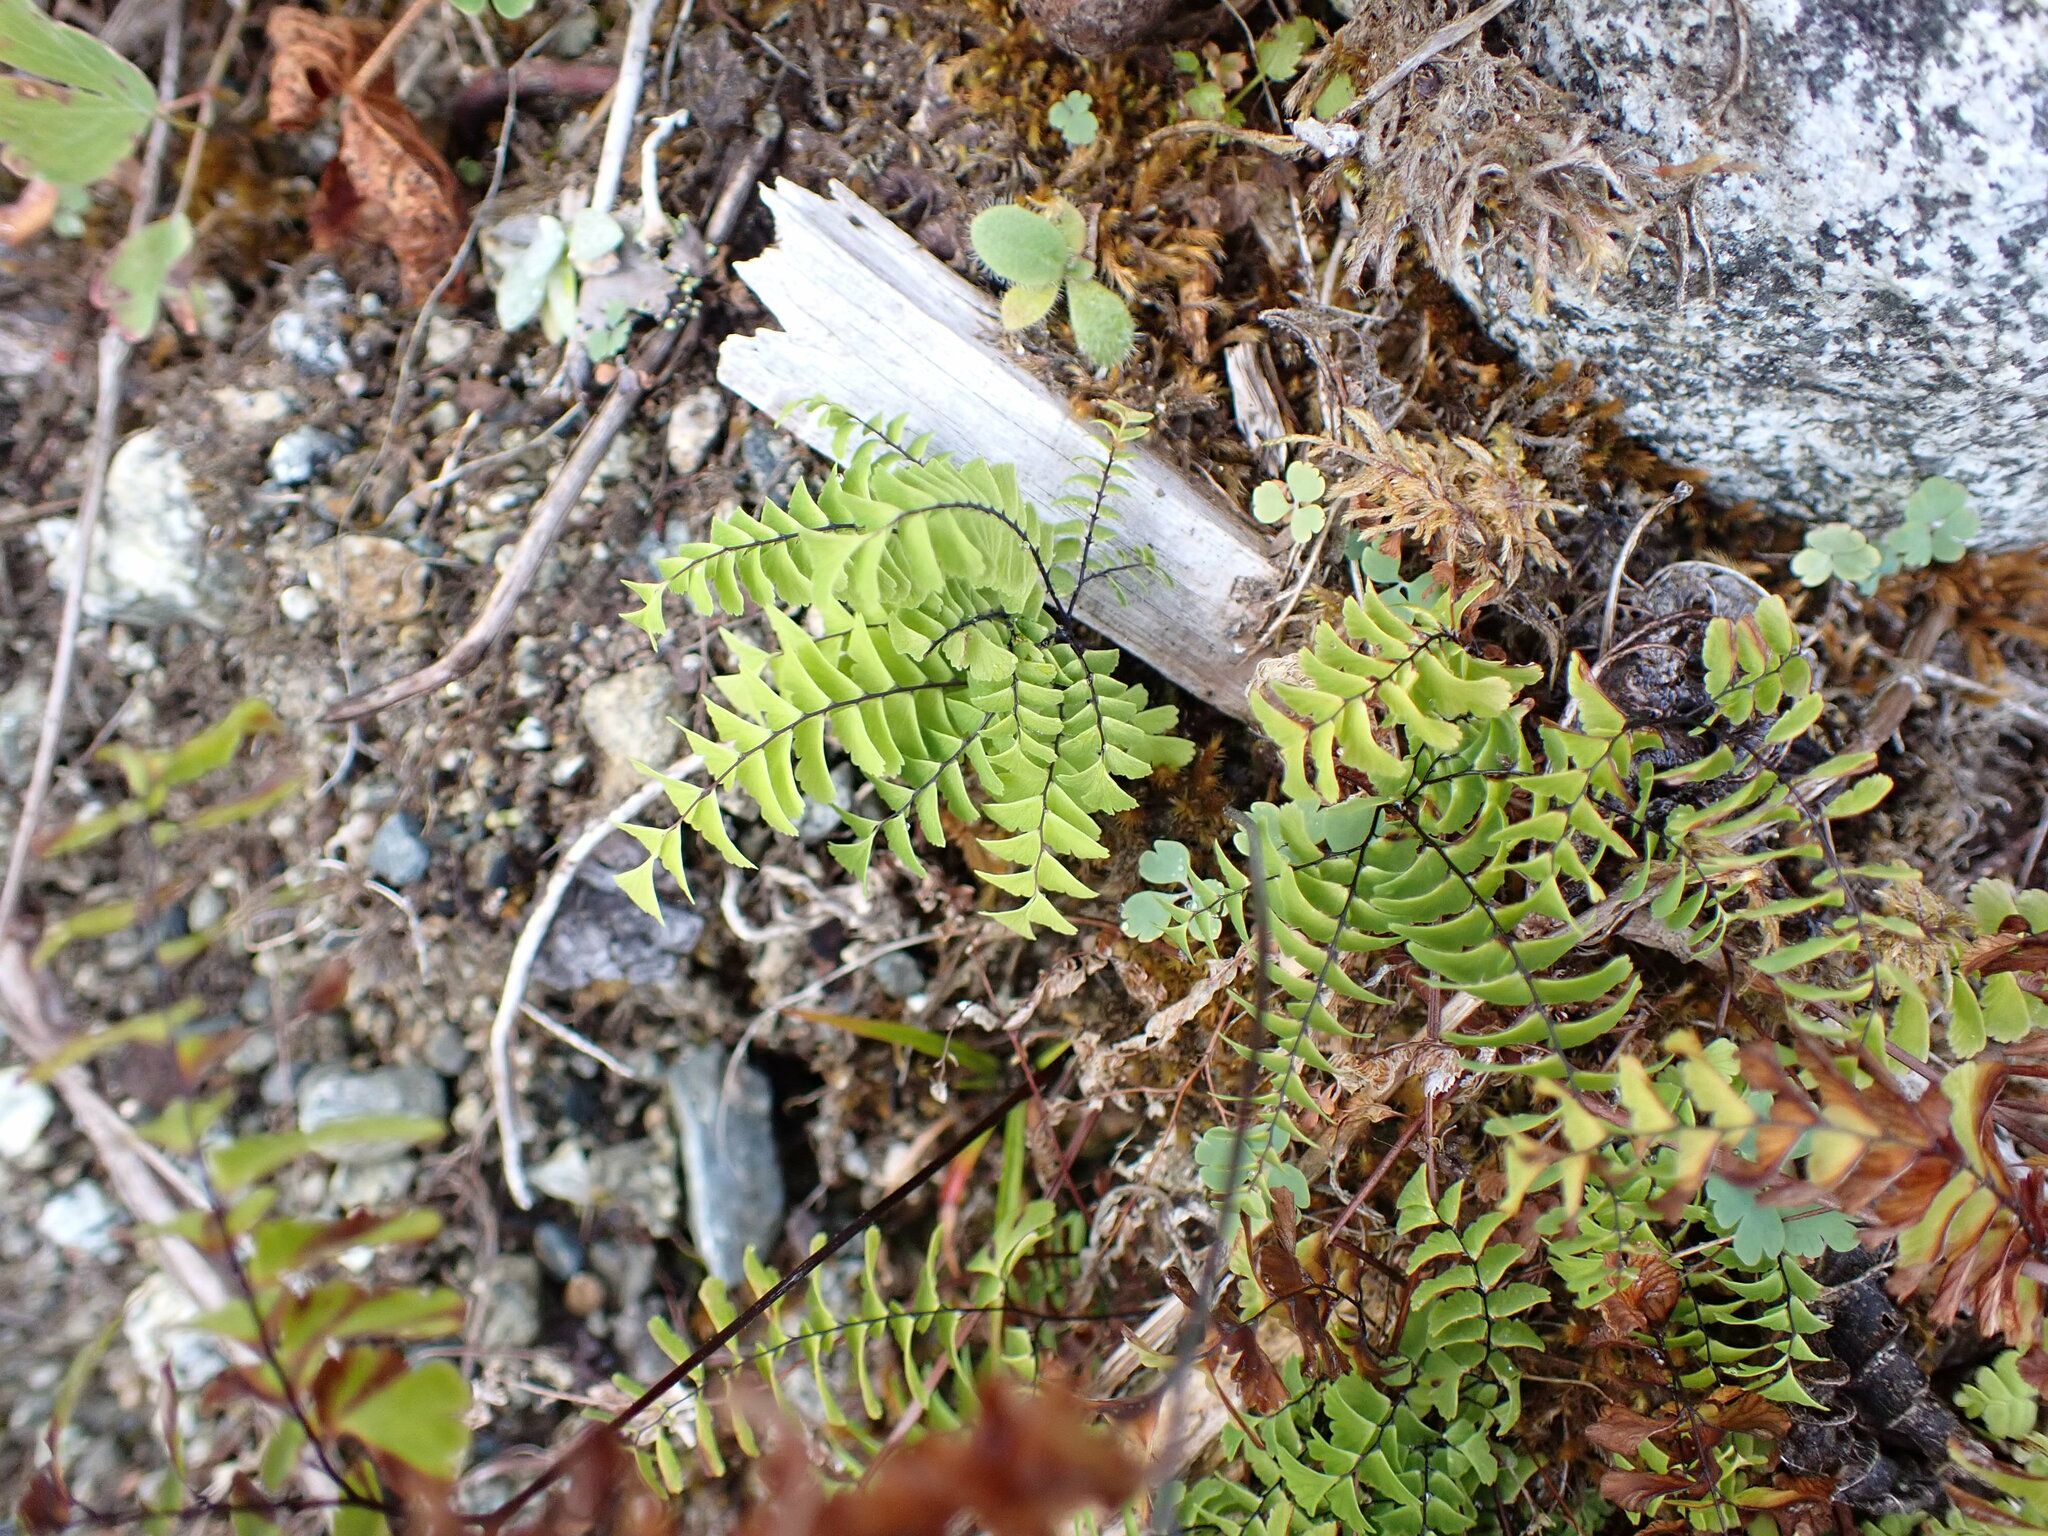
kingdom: Plantae
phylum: Tracheophyta
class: Polypodiopsida
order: Polypodiales
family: Pteridaceae
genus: Adiantum
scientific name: Adiantum aleuticum
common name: Aleutian maidenhair fern
